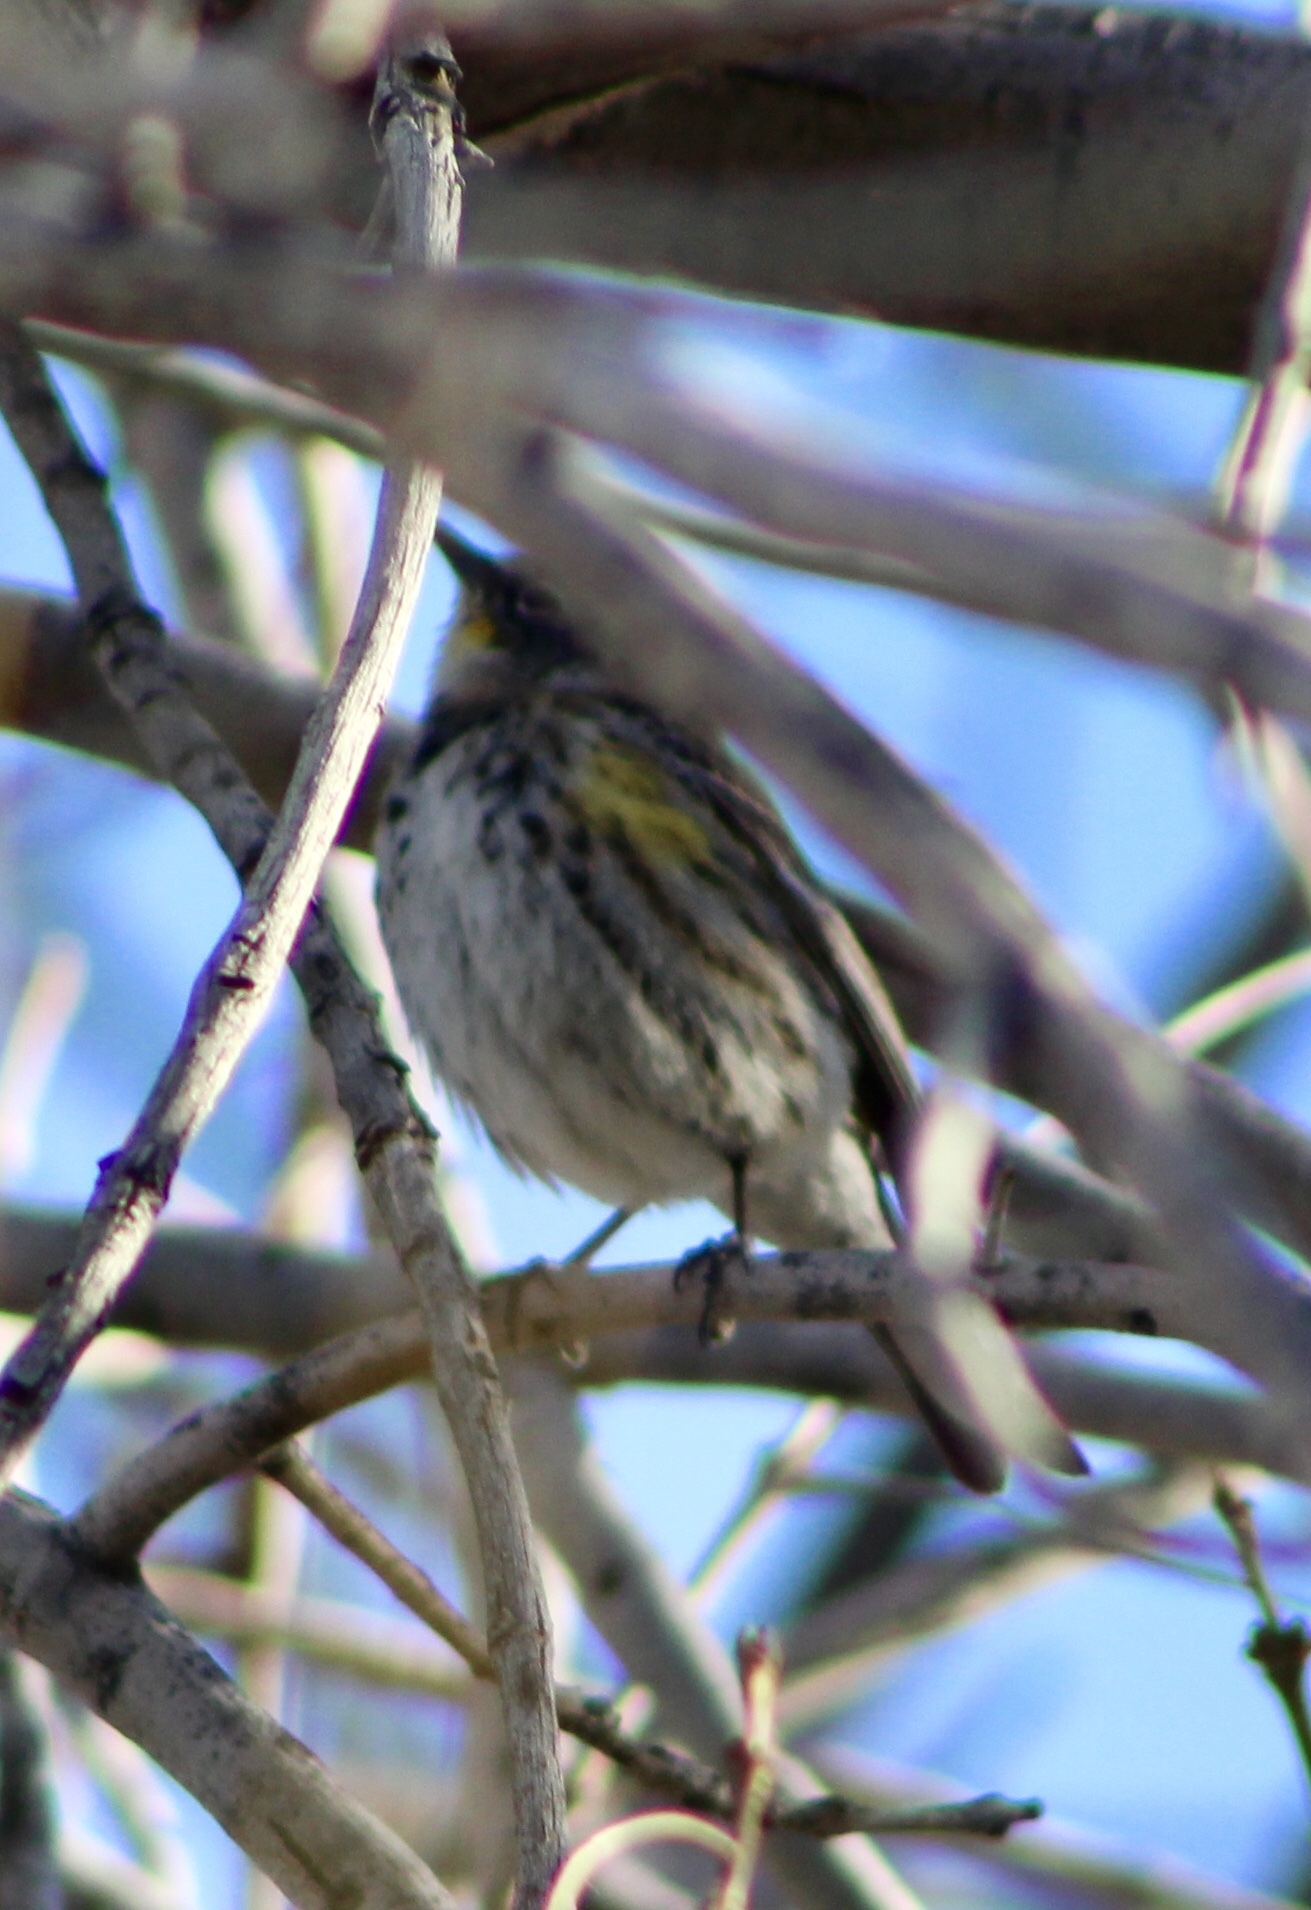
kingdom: Animalia
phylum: Chordata
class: Aves
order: Passeriformes
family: Parulidae
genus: Setophaga
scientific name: Setophaga coronata
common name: Myrtle warbler
